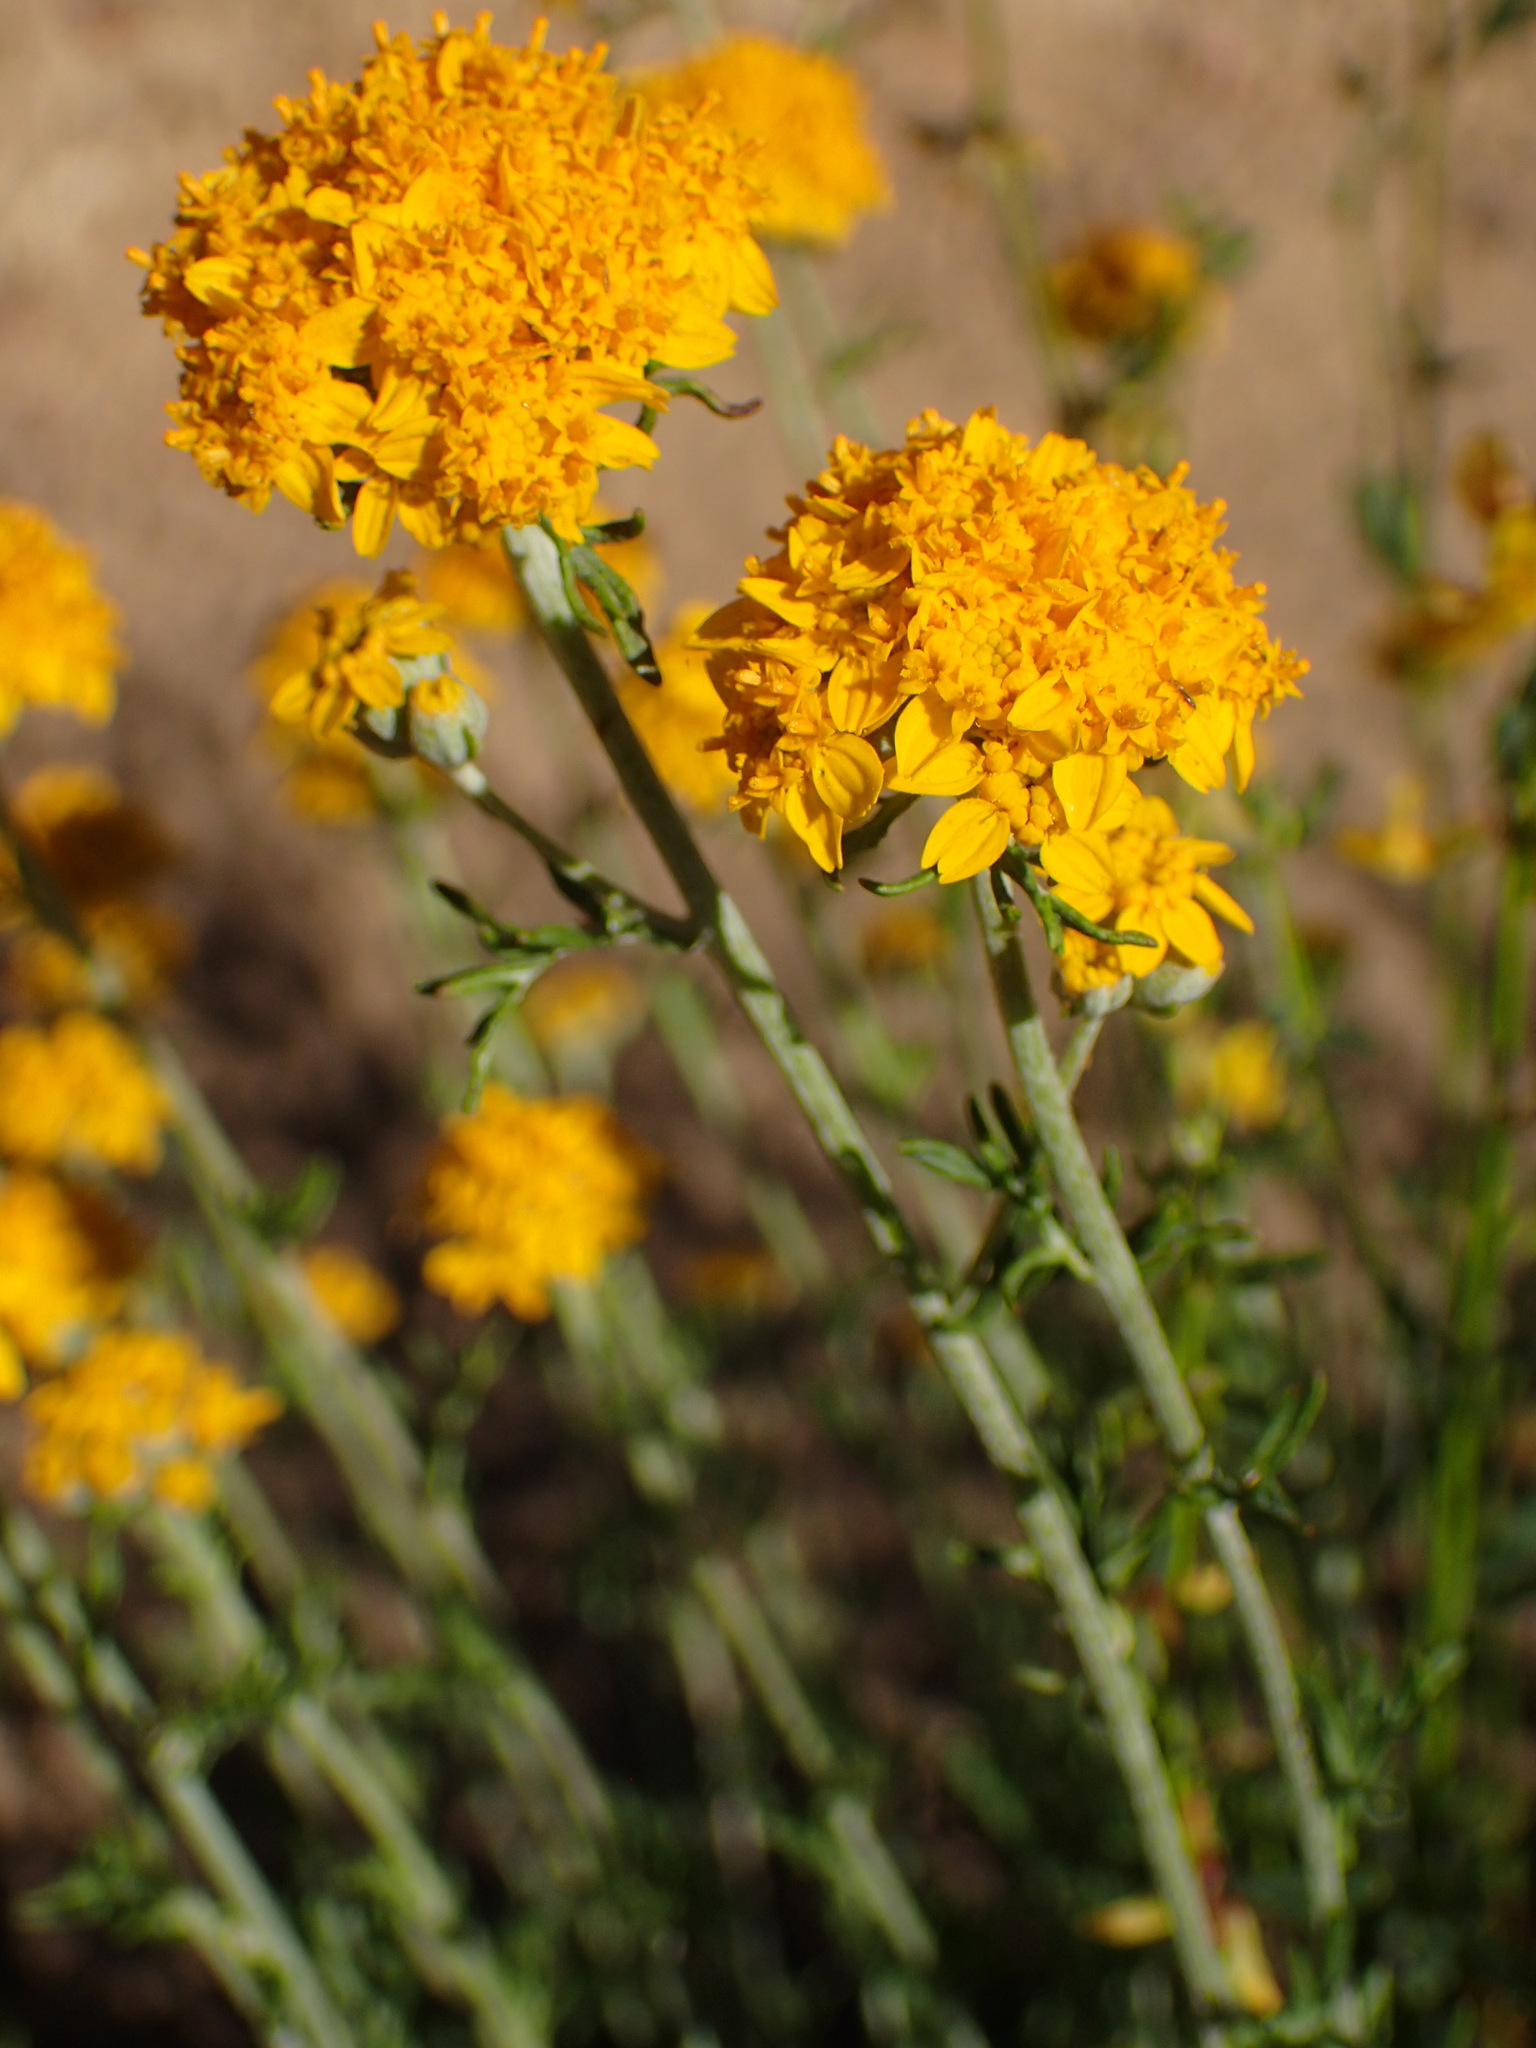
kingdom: Plantae
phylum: Tracheophyta
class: Magnoliopsida
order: Asterales
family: Asteraceae
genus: Eriophyllum
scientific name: Eriophyllum confertiflorum
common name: Golden-yarrow
